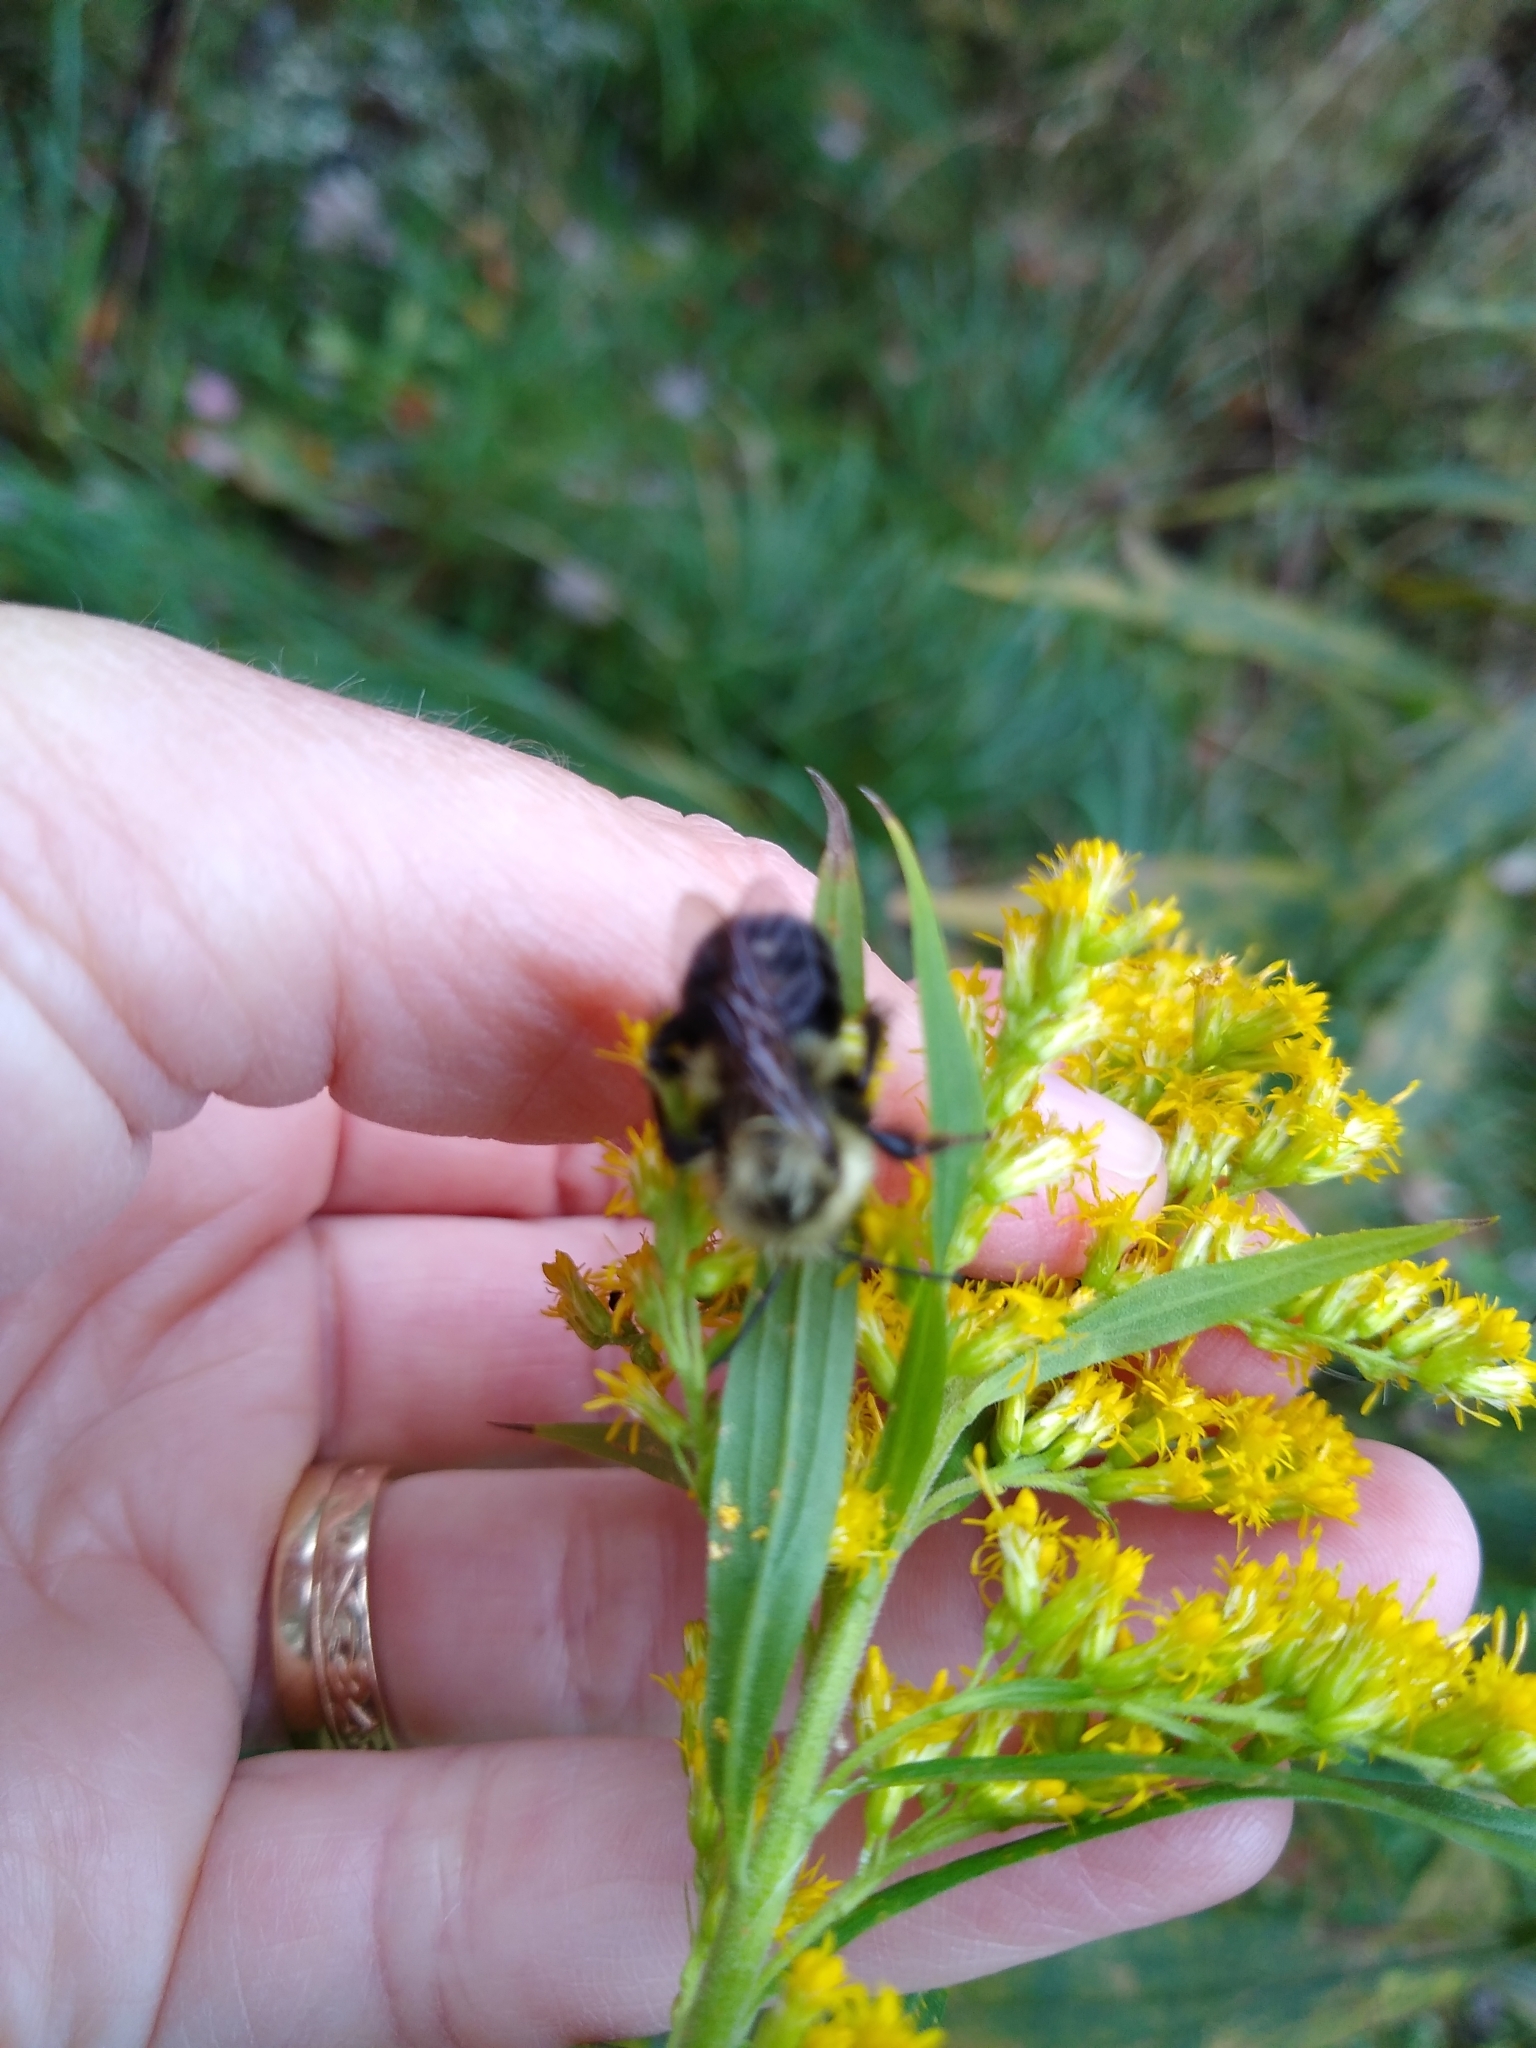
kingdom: Animalia
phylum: Arthropoda
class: Insecta
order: Hymenoptera
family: Apidae
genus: Bombus
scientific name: Bombus impatiens
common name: Common eastern bumble bee
